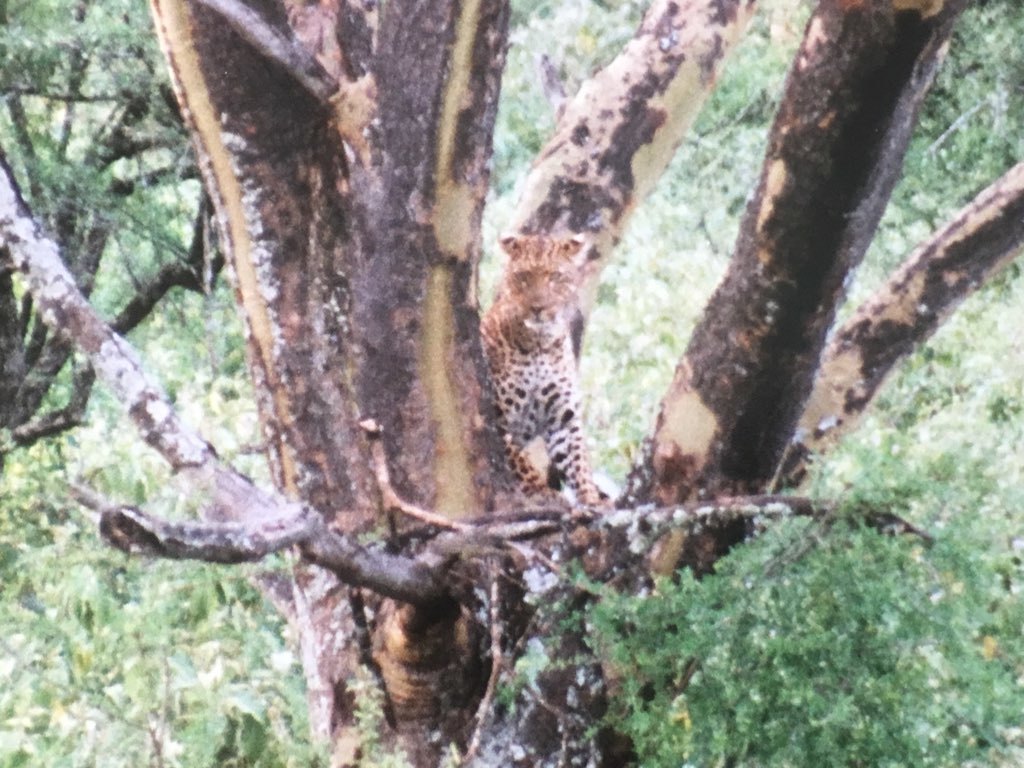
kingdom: Animalia
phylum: Chordata
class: Mammalia
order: Carnivora
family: Felidae
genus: Panthera
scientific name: Panthera pardus
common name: Leopard
